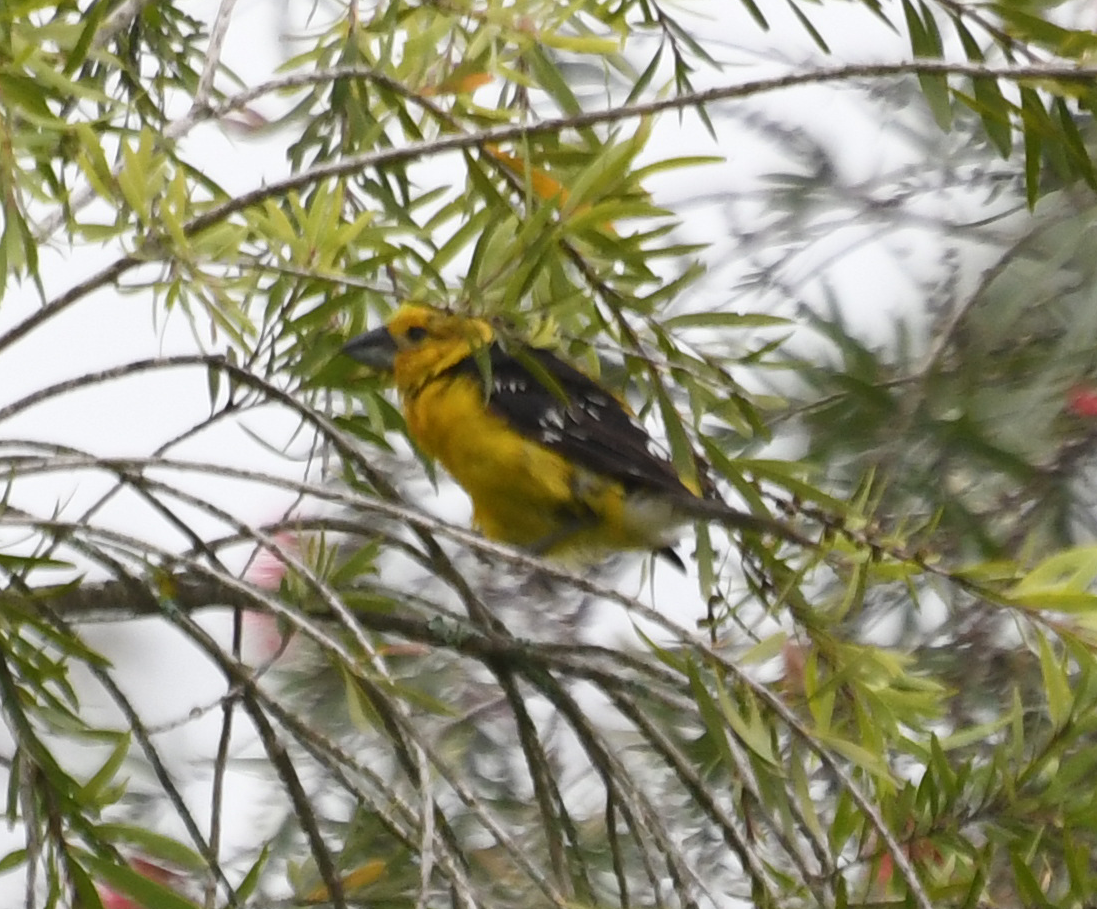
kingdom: Animalia
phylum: Chordata
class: Aves
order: Passeriformes
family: Cardinalidae
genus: Pheucticus
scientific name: Pheucticus chrysogaster
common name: Golden grosbeak
